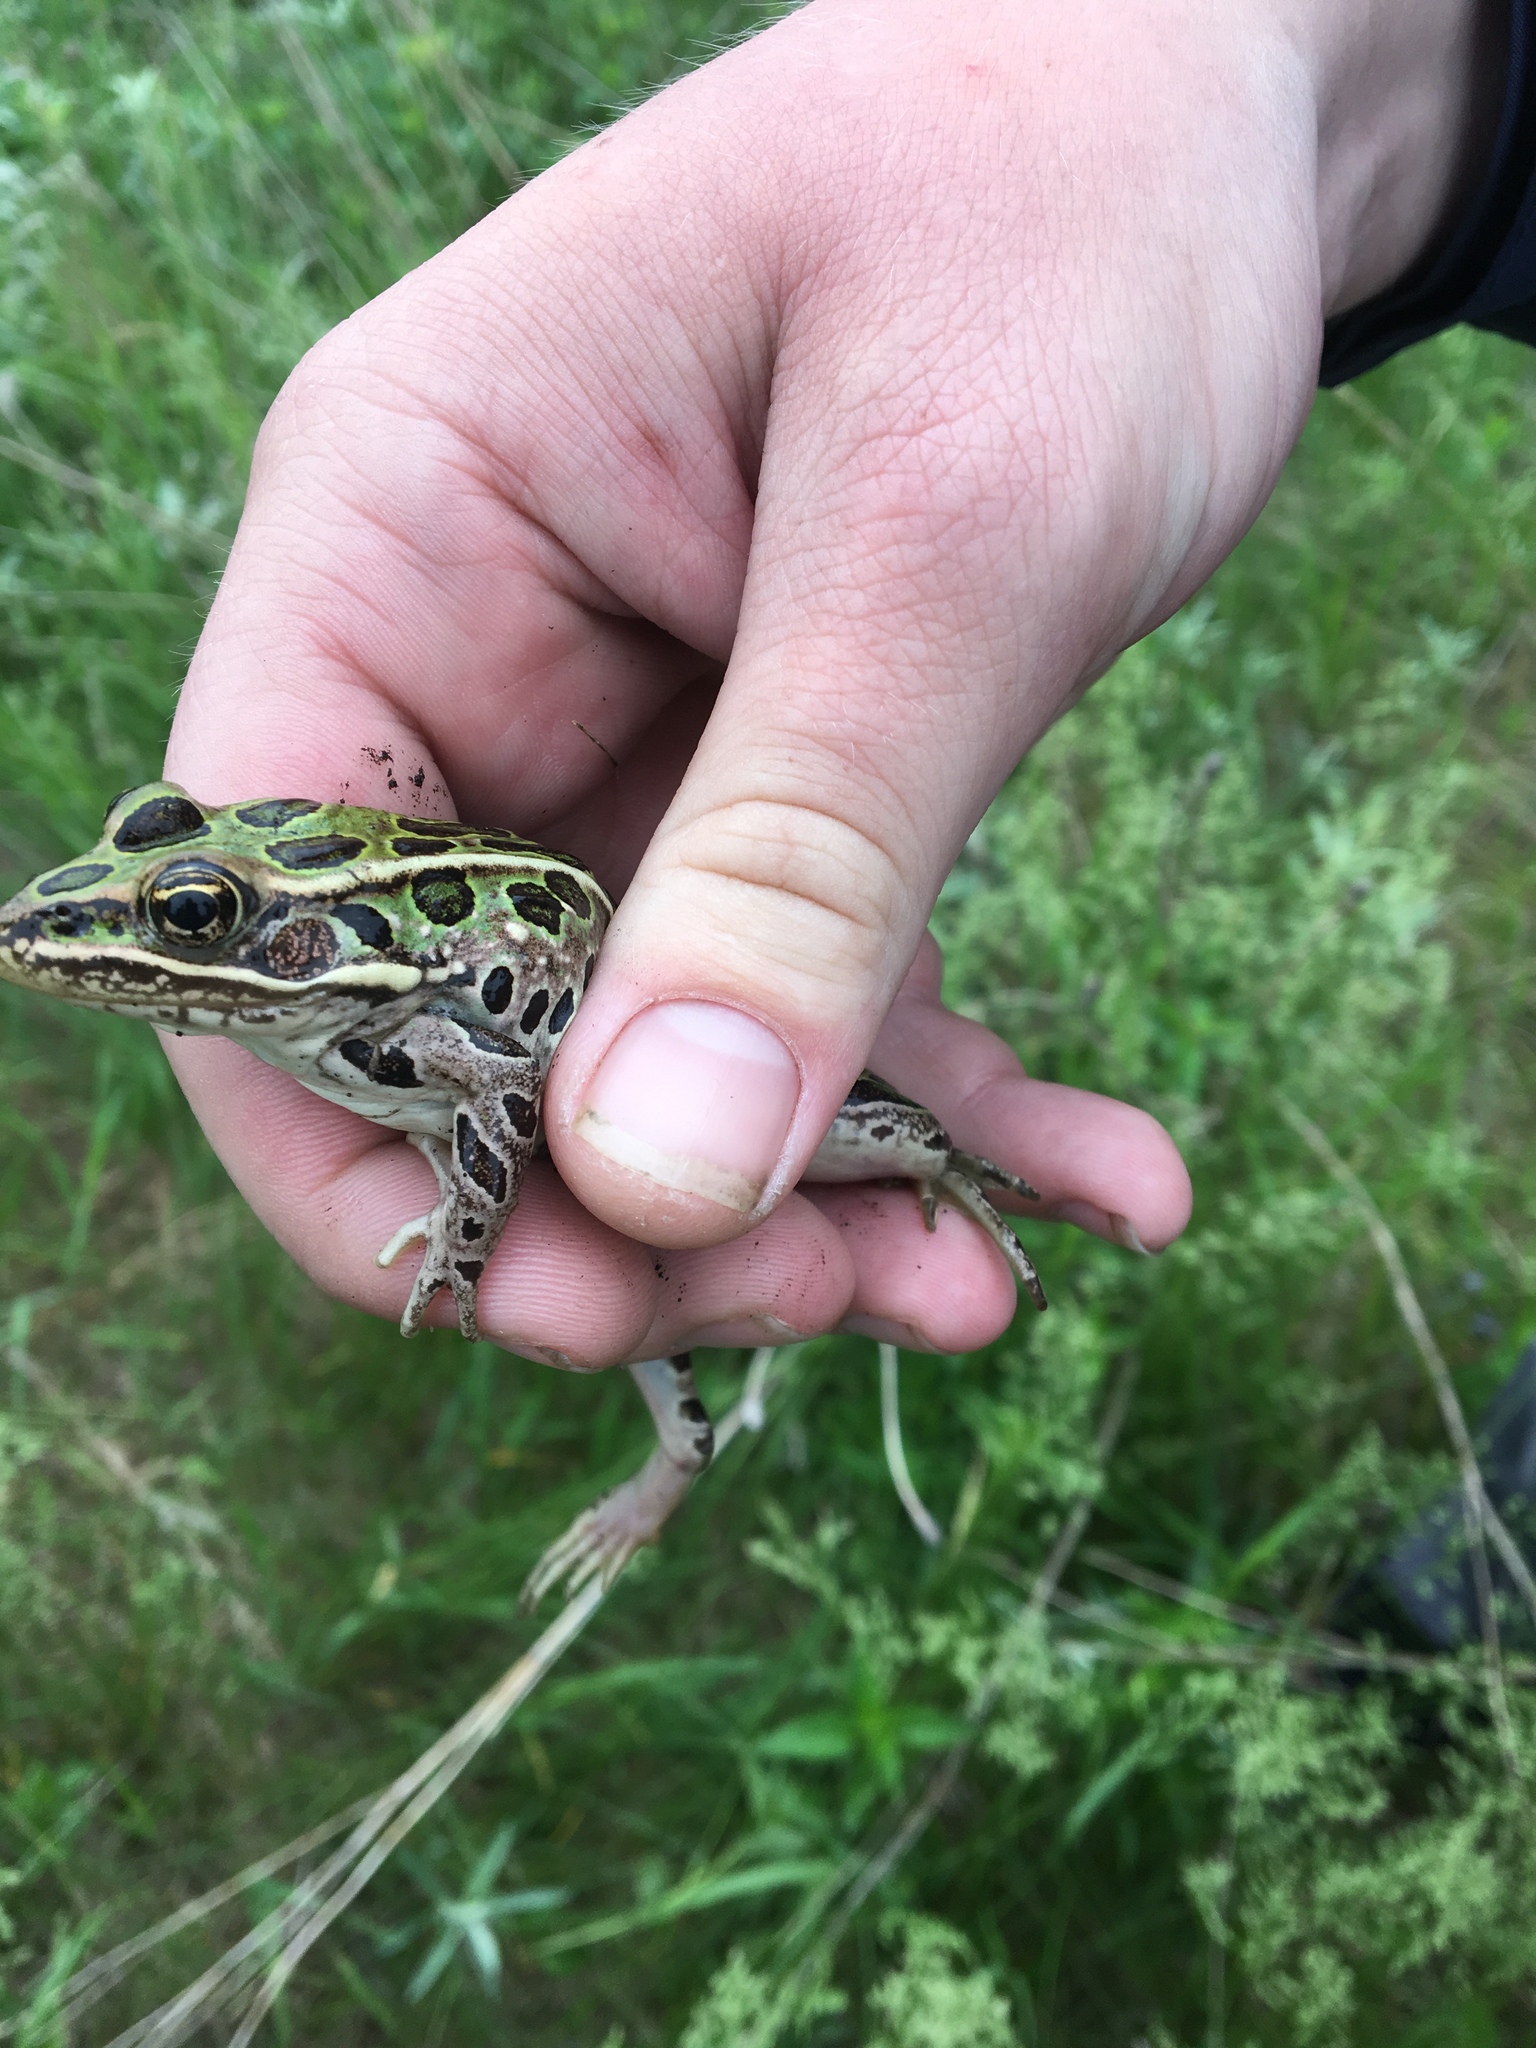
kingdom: Animalia
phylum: Chordata
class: Amphibia
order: Anura
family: Ranidae
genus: Lithobates
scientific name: Lithobates pipiens
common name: Northern leopard frog
